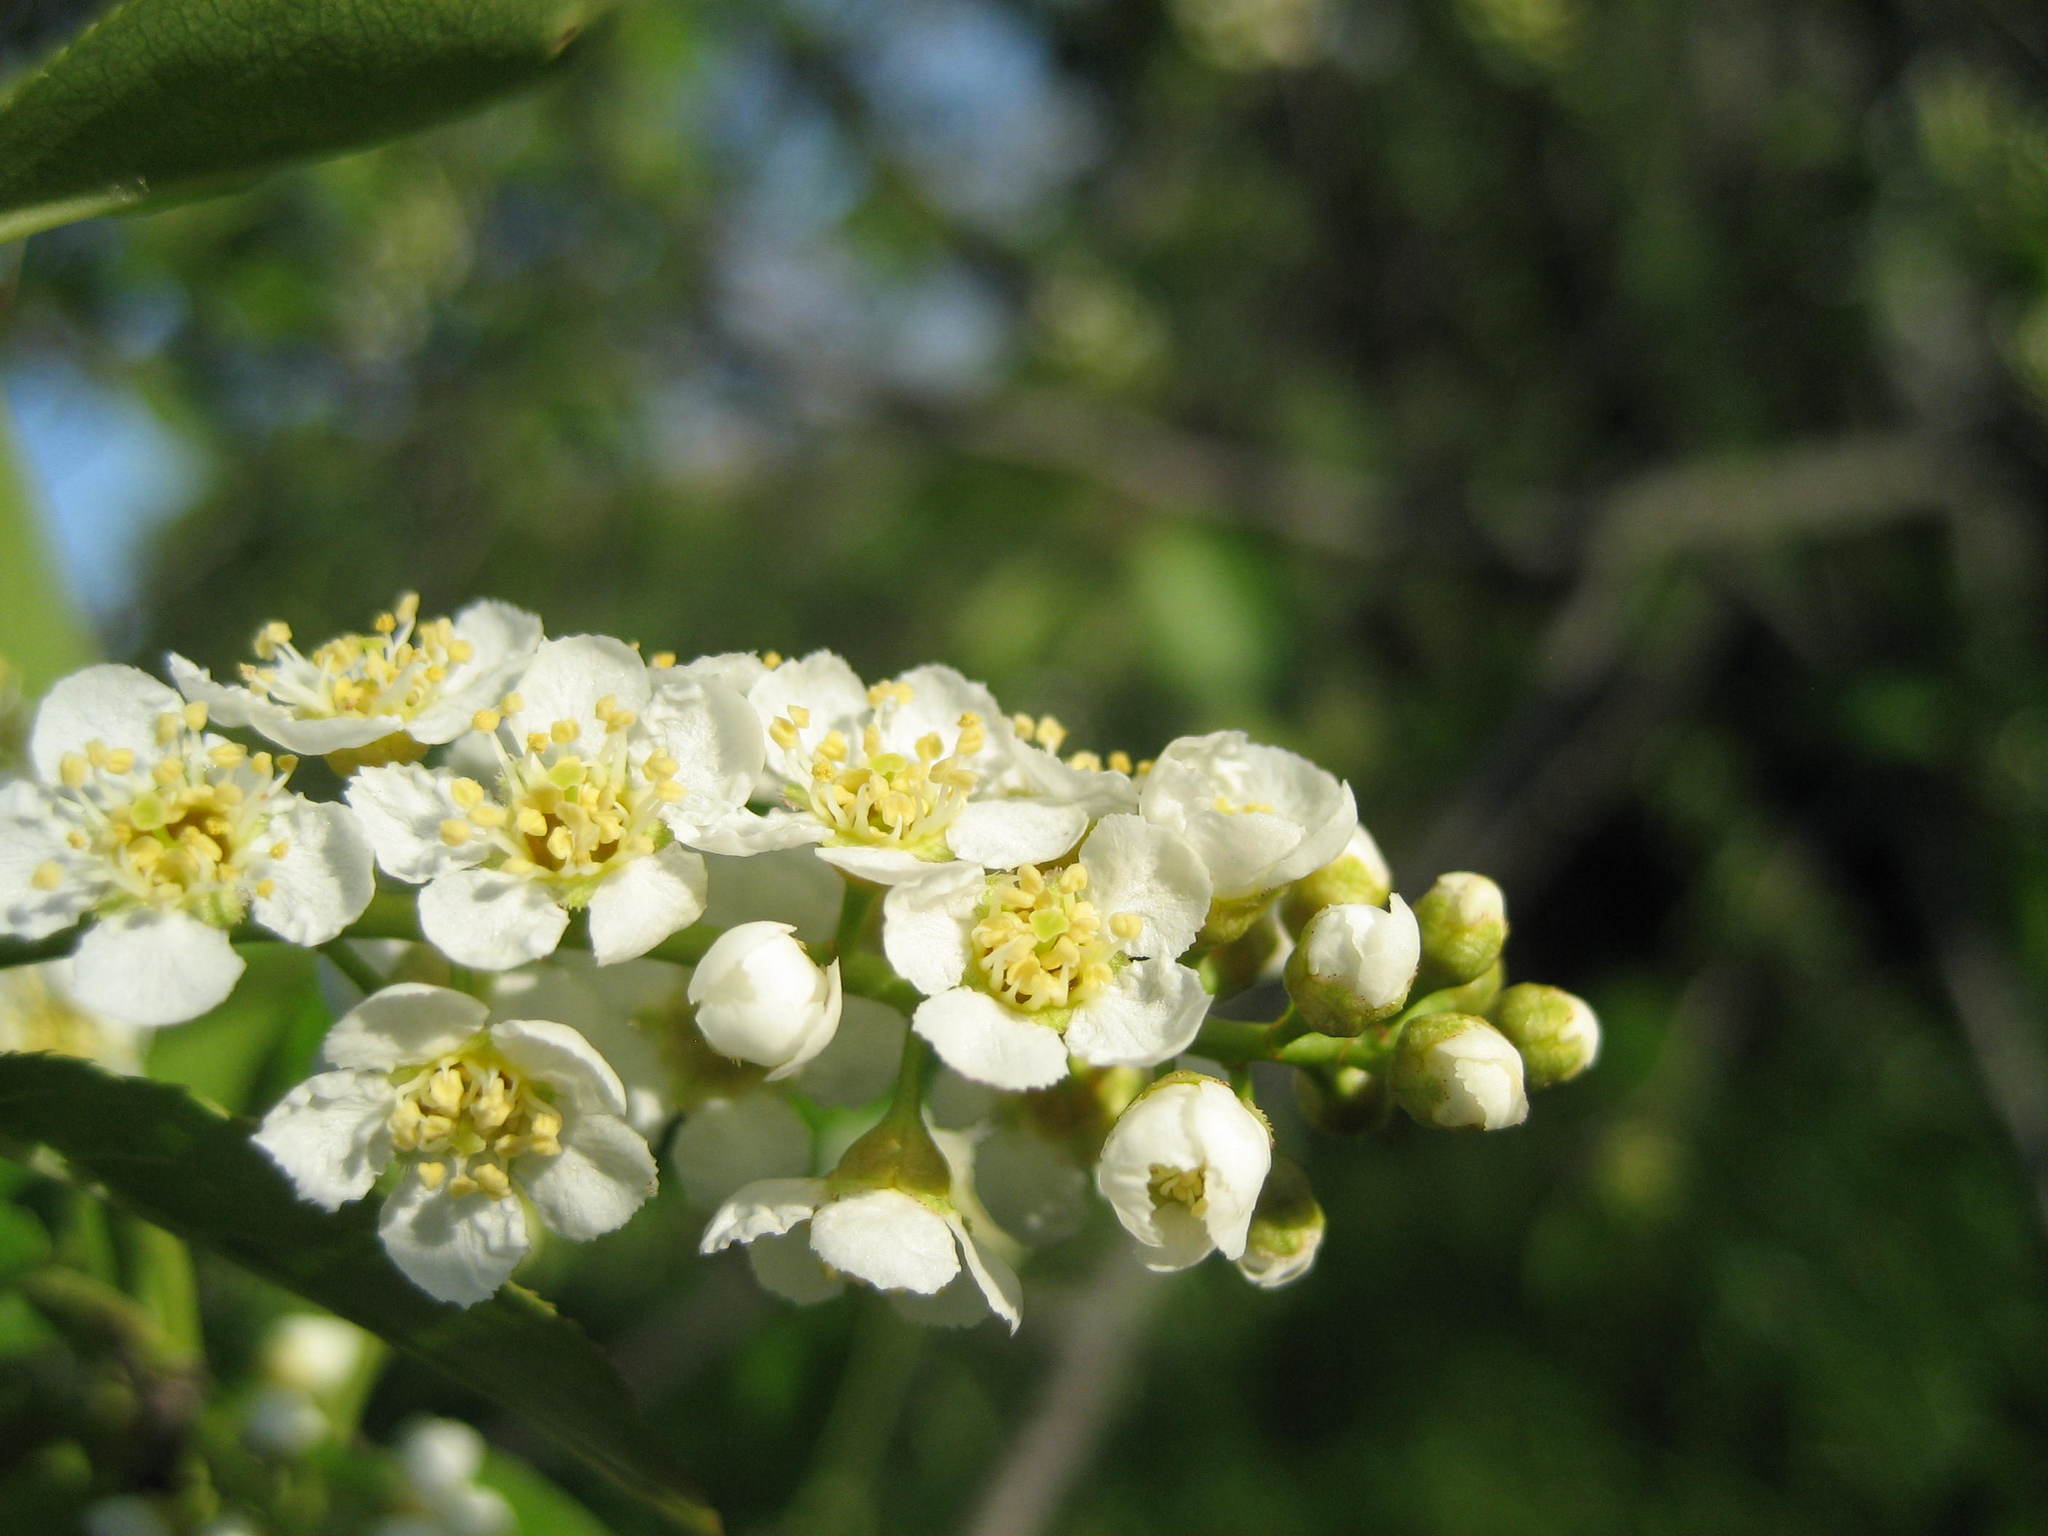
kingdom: Plantae
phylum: Tracheophyta
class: Magnoliopsida
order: Rosales
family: Rosaceae
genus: Prunus
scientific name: Prunus virginiana
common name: Chokecherry
